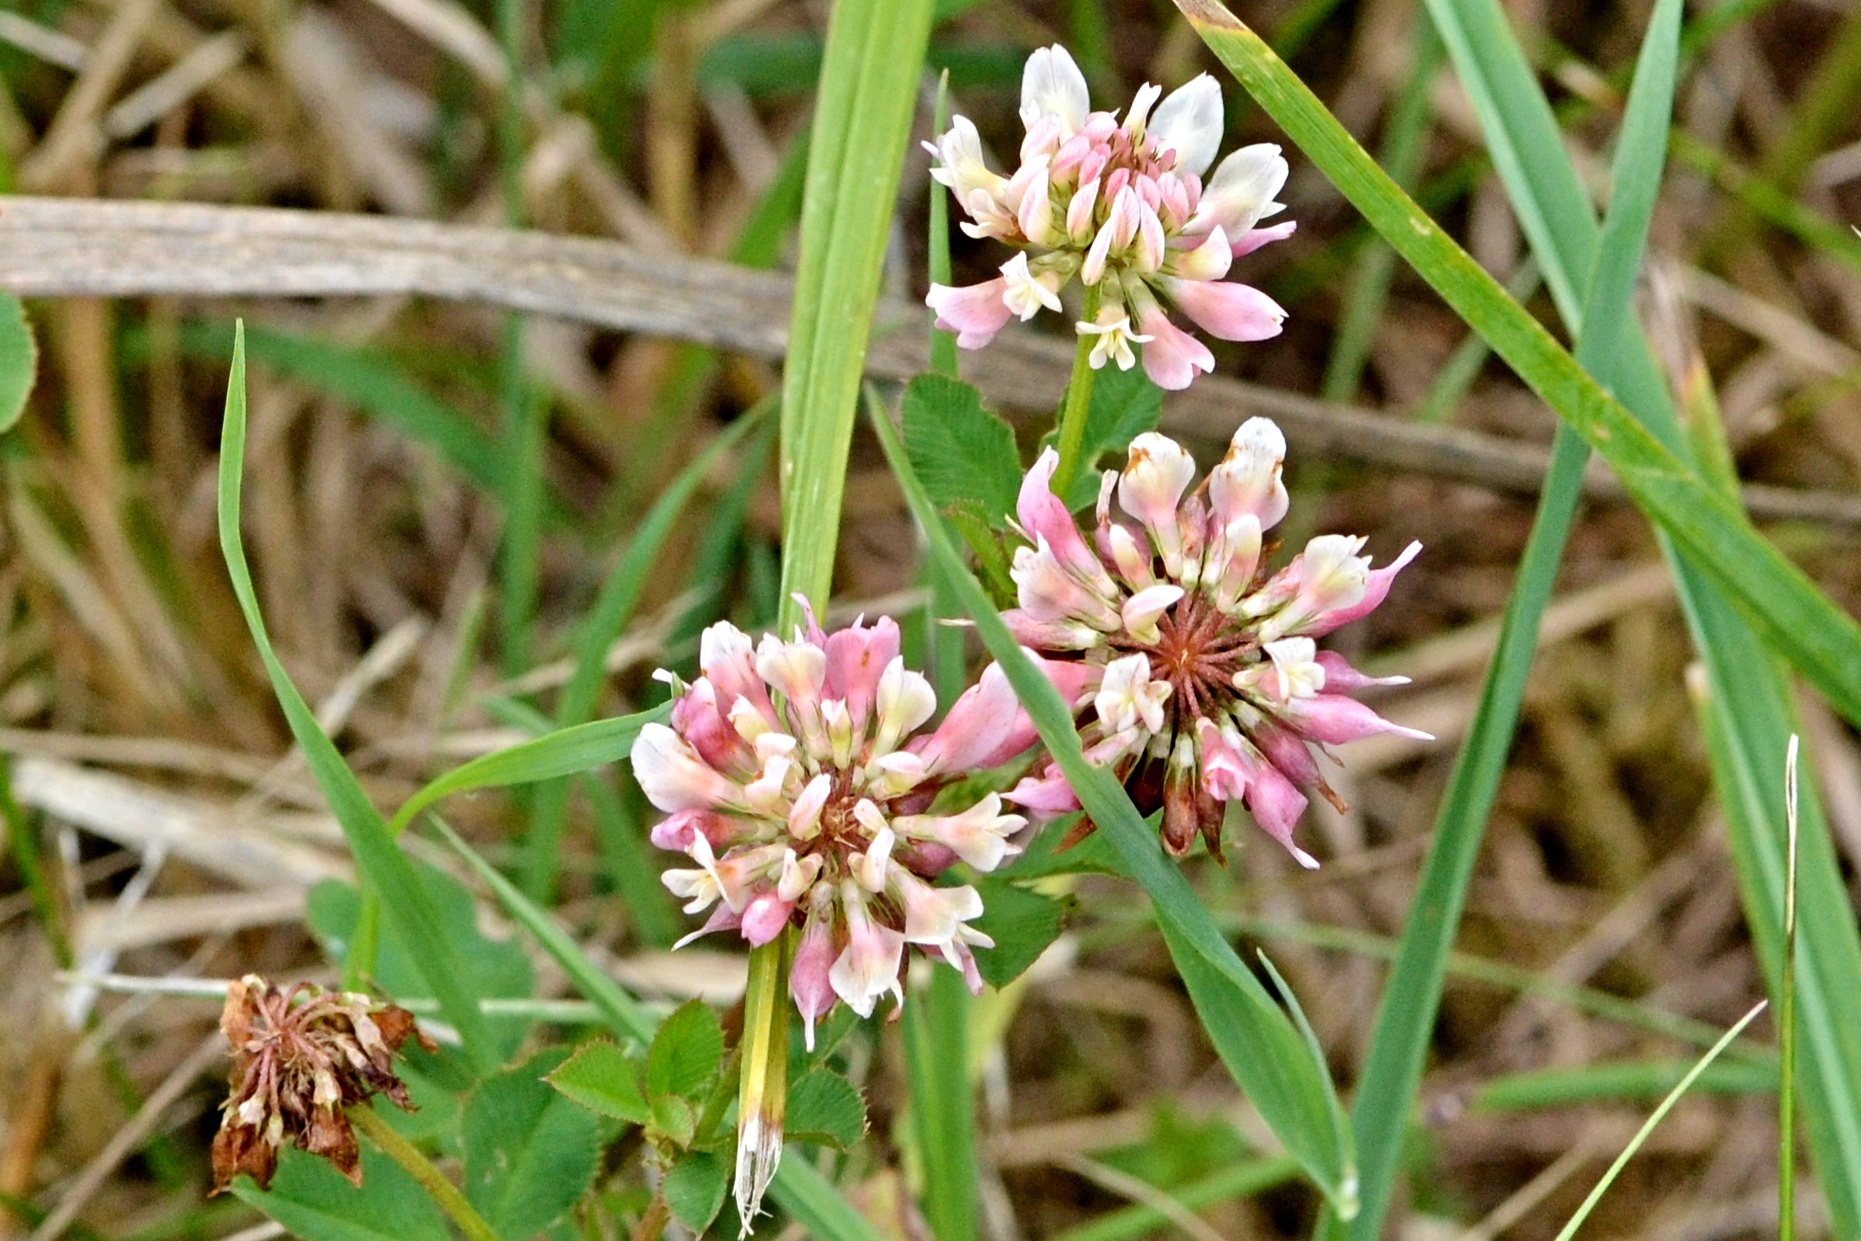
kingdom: Plantae
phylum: Tracheophyta
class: Magnoliopsida
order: Fabales
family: Fabaceae
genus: Trifolium
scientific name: Trifolium hybridum
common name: Alsike clover
